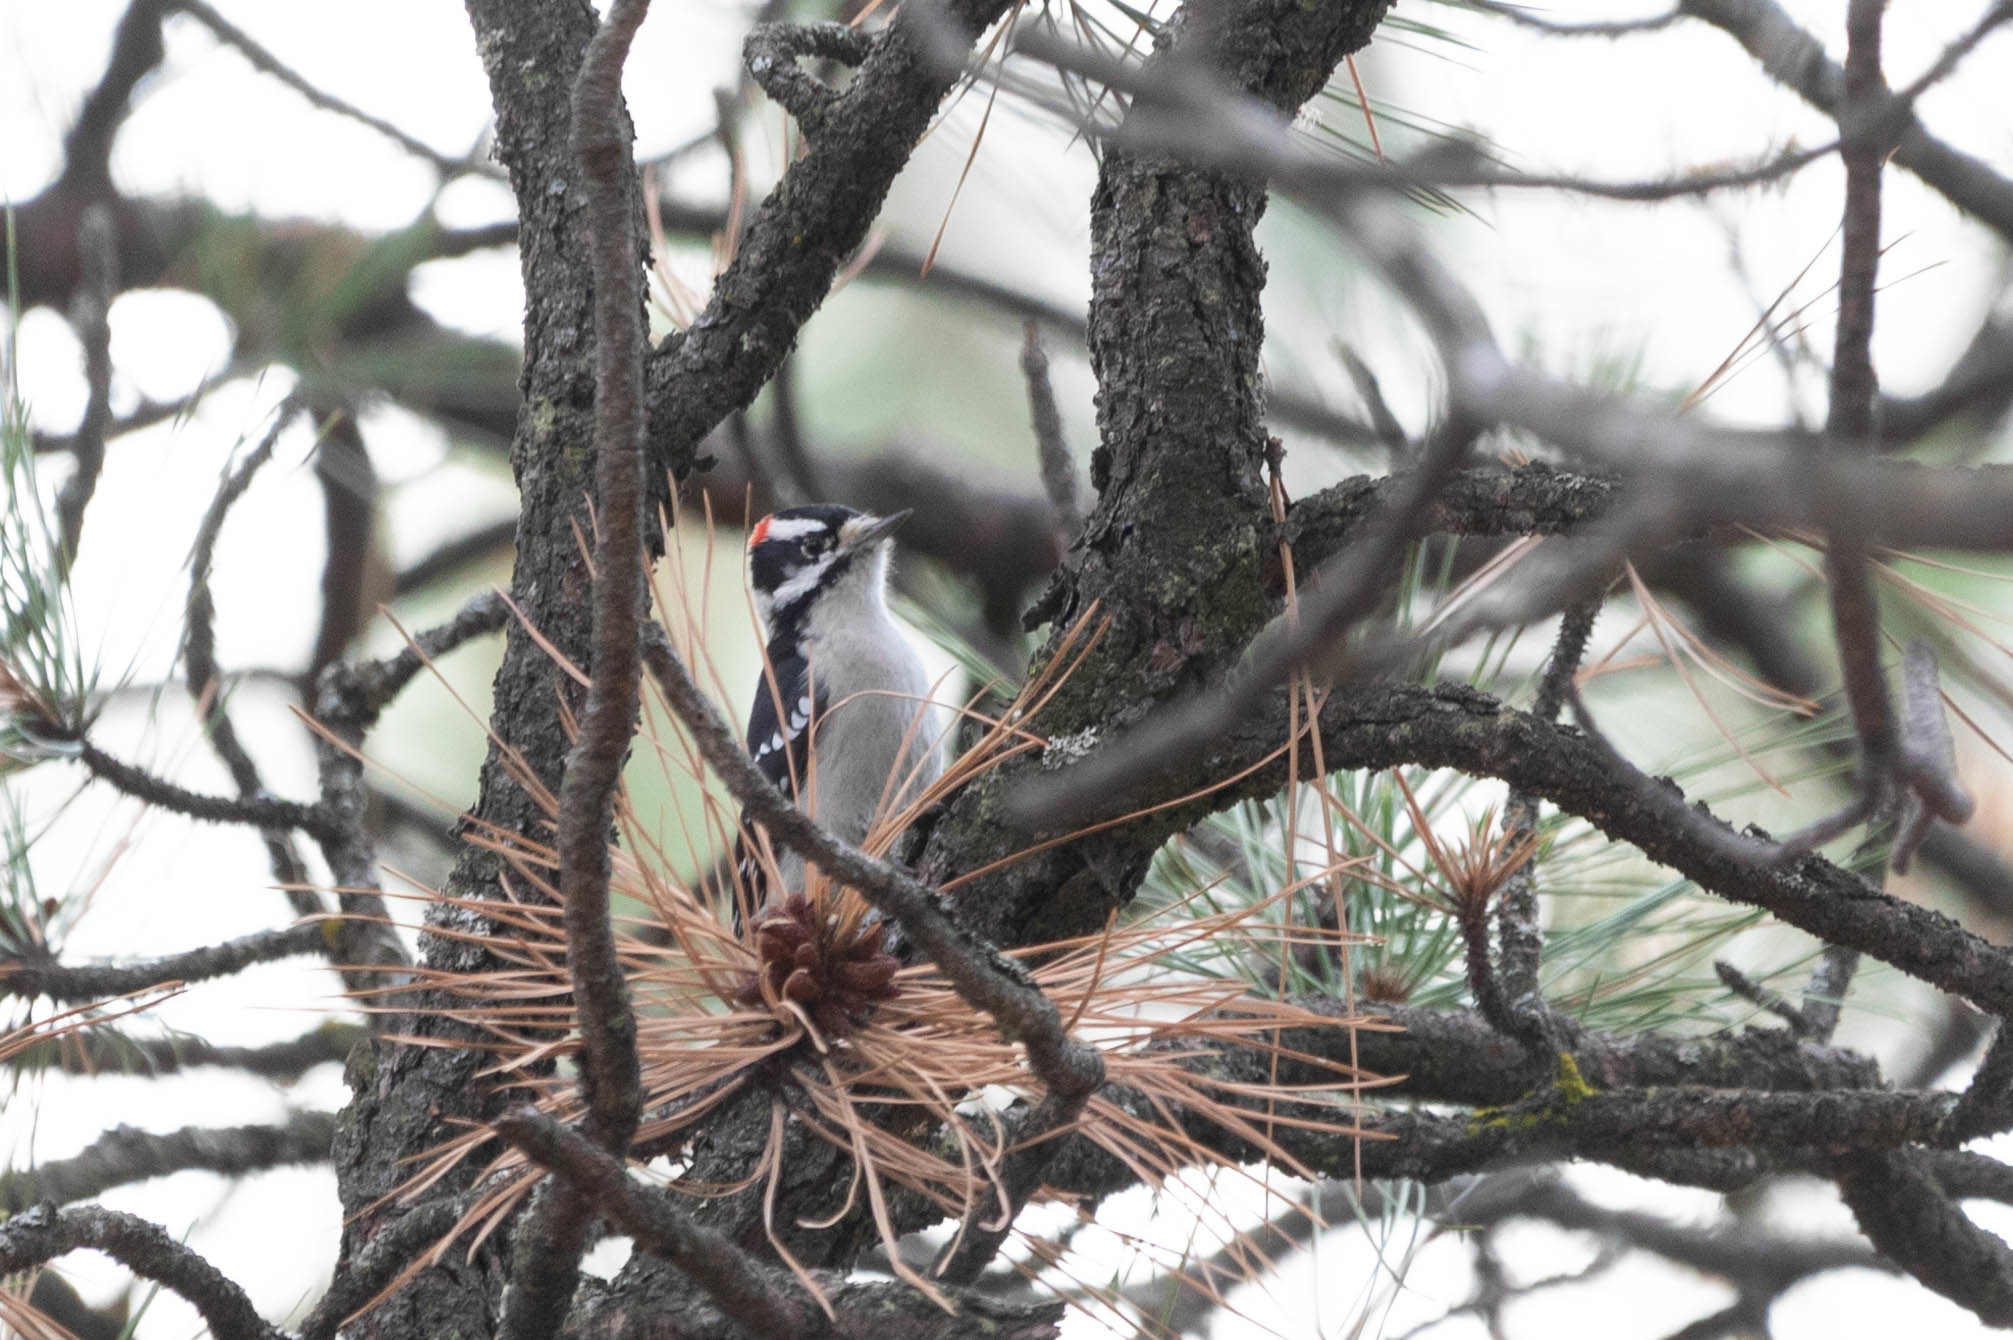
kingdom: Animalia
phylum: Chordata
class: Aves
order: Piciformes
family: Picidae
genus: Dryobates
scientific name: Dryobates pubescens
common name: Downy woodpecker
